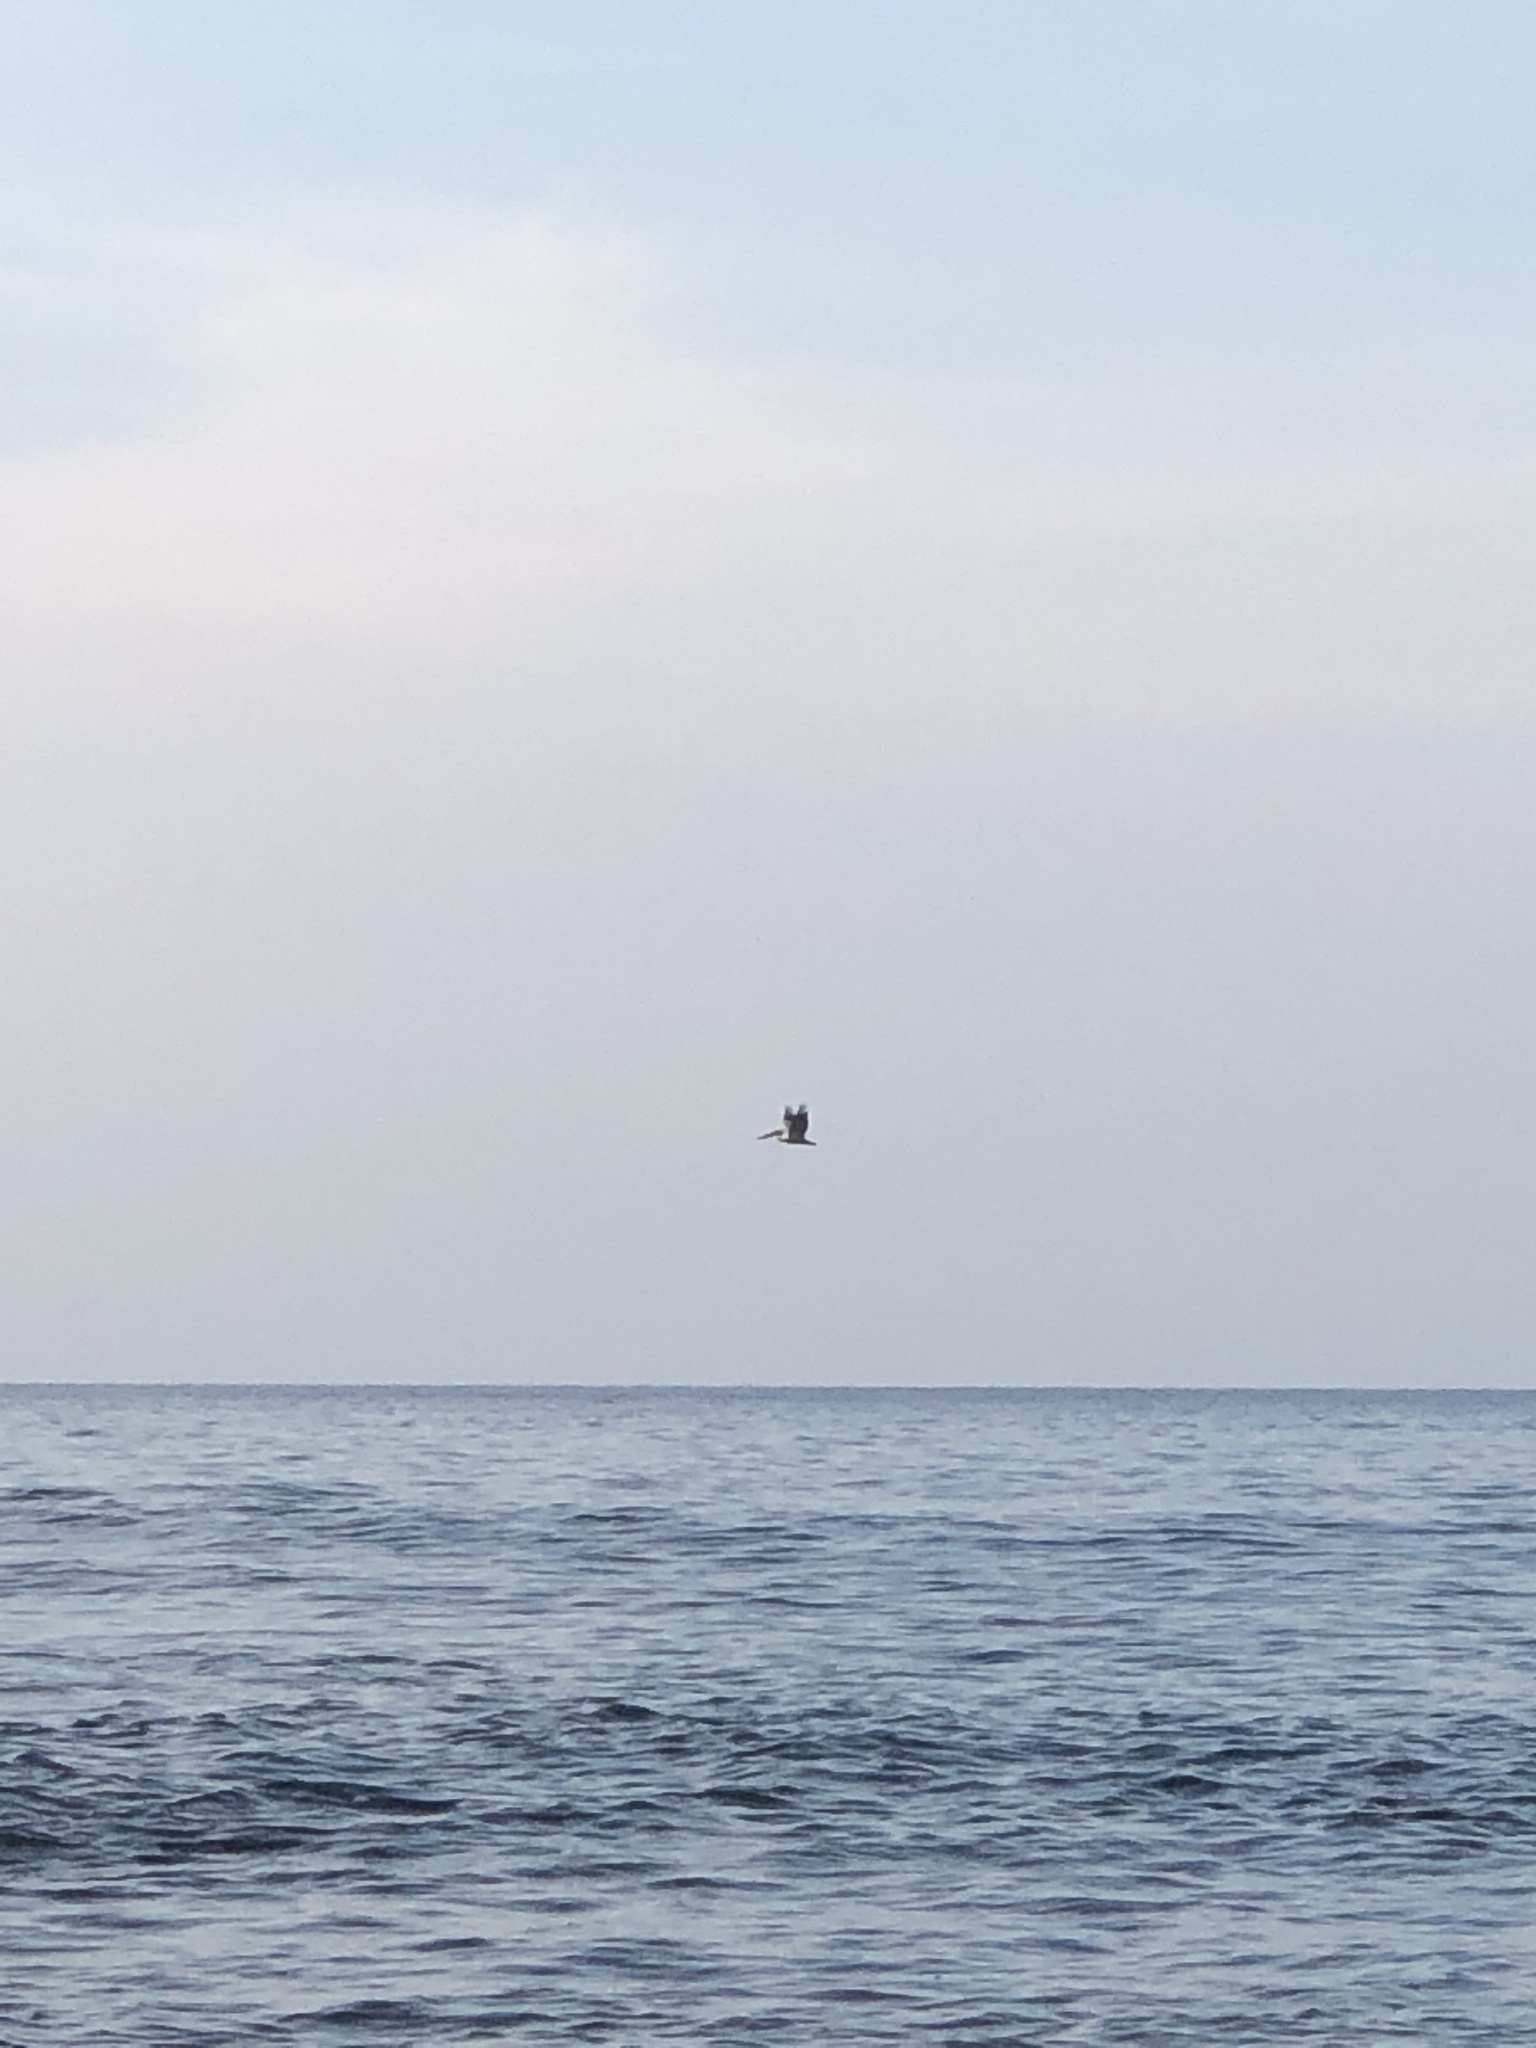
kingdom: Animalia
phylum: Chordata
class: Aves
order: Pelecaniformes
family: Pelecanidae
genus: Pelecanus
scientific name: Pelecanus occidentalis
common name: Brown pelican
